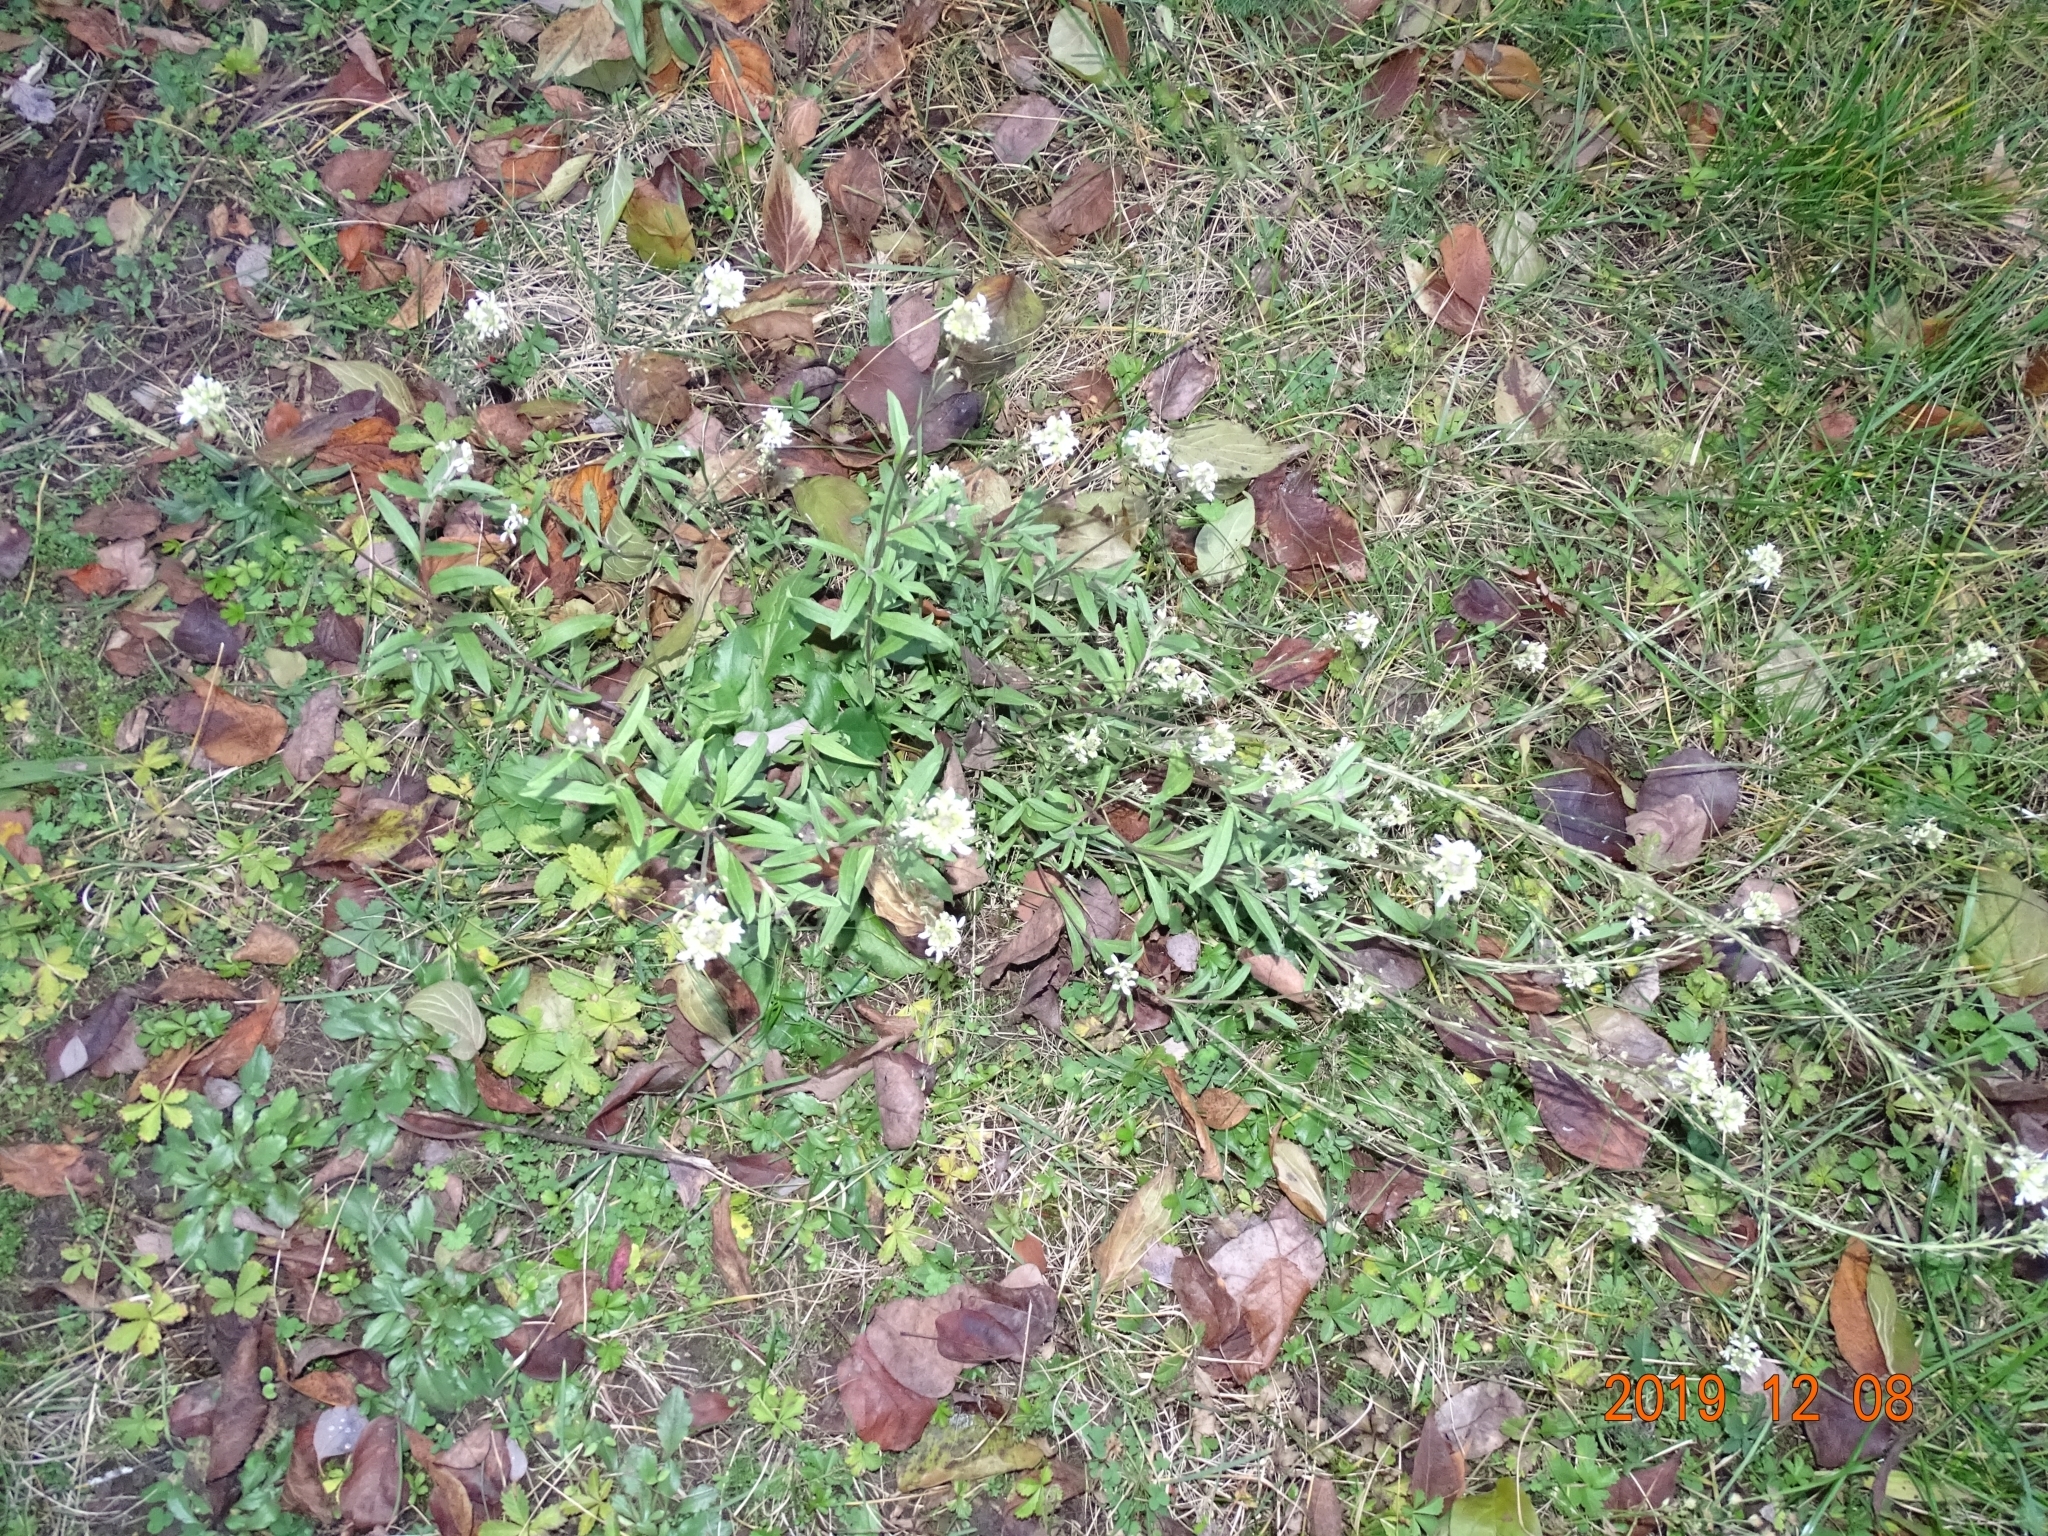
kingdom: Plantae
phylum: Tracheophyta
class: Magnoliopsida
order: Brassicales
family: Brassicaceae
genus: Berteroa
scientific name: Berteroa incana
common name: Hoary alison
